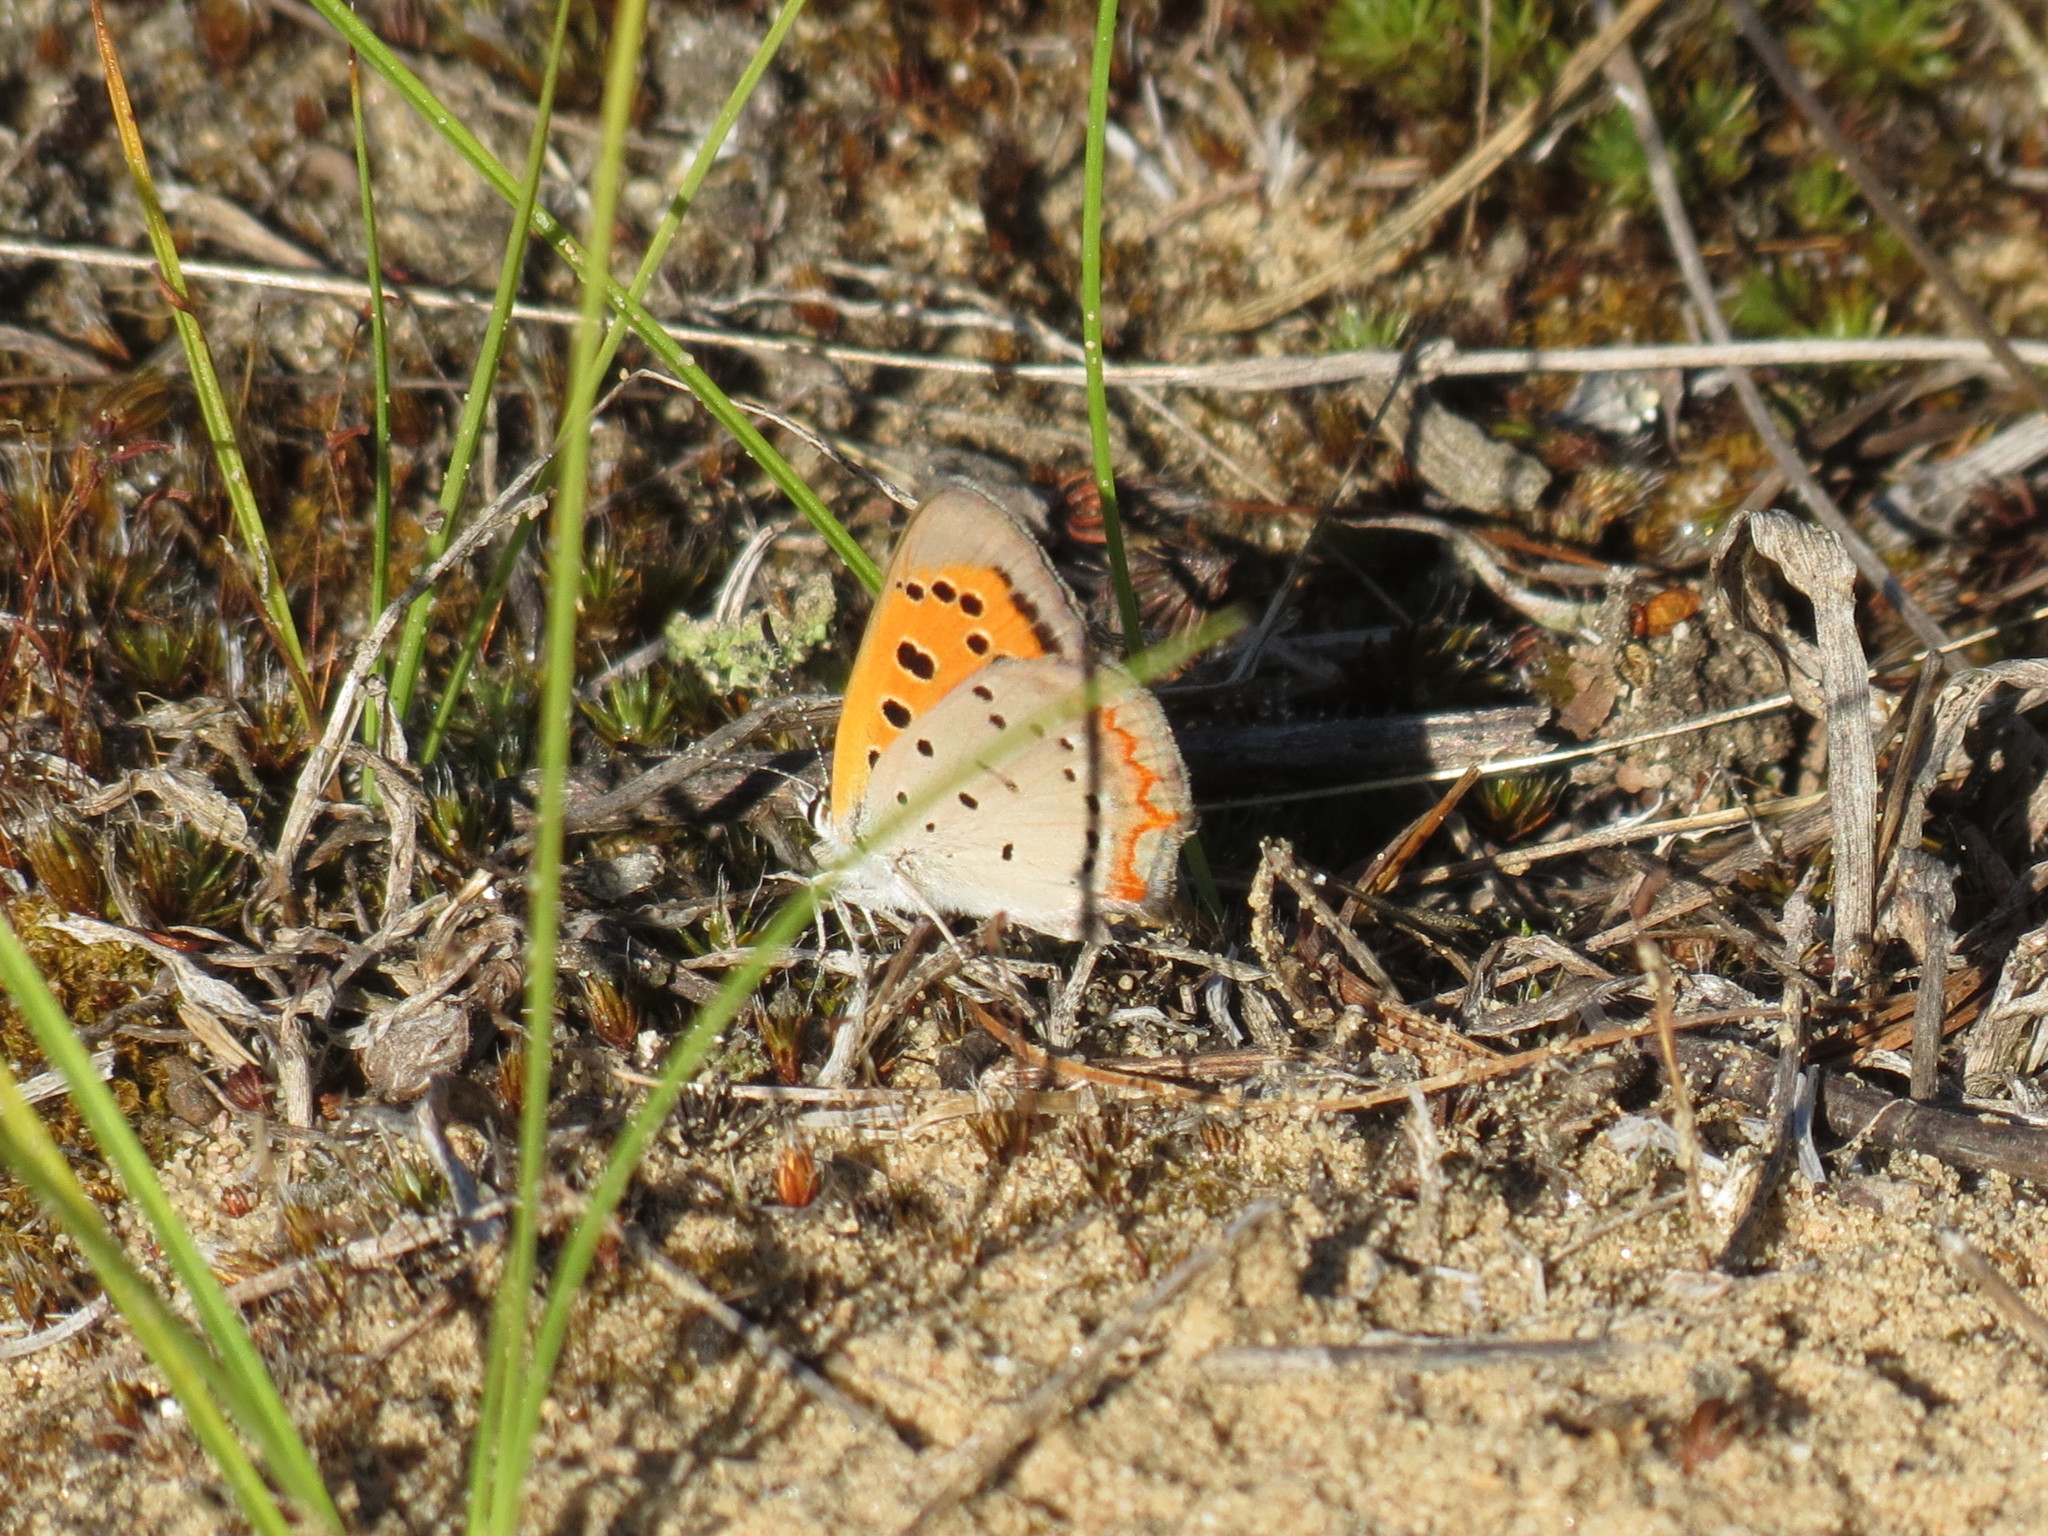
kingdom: Animalia
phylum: Arthropoda
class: Insecta
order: Lepidoptera
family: Lycaenidae
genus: Lycaena
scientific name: Lycaena hypophlaeas
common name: American copper
